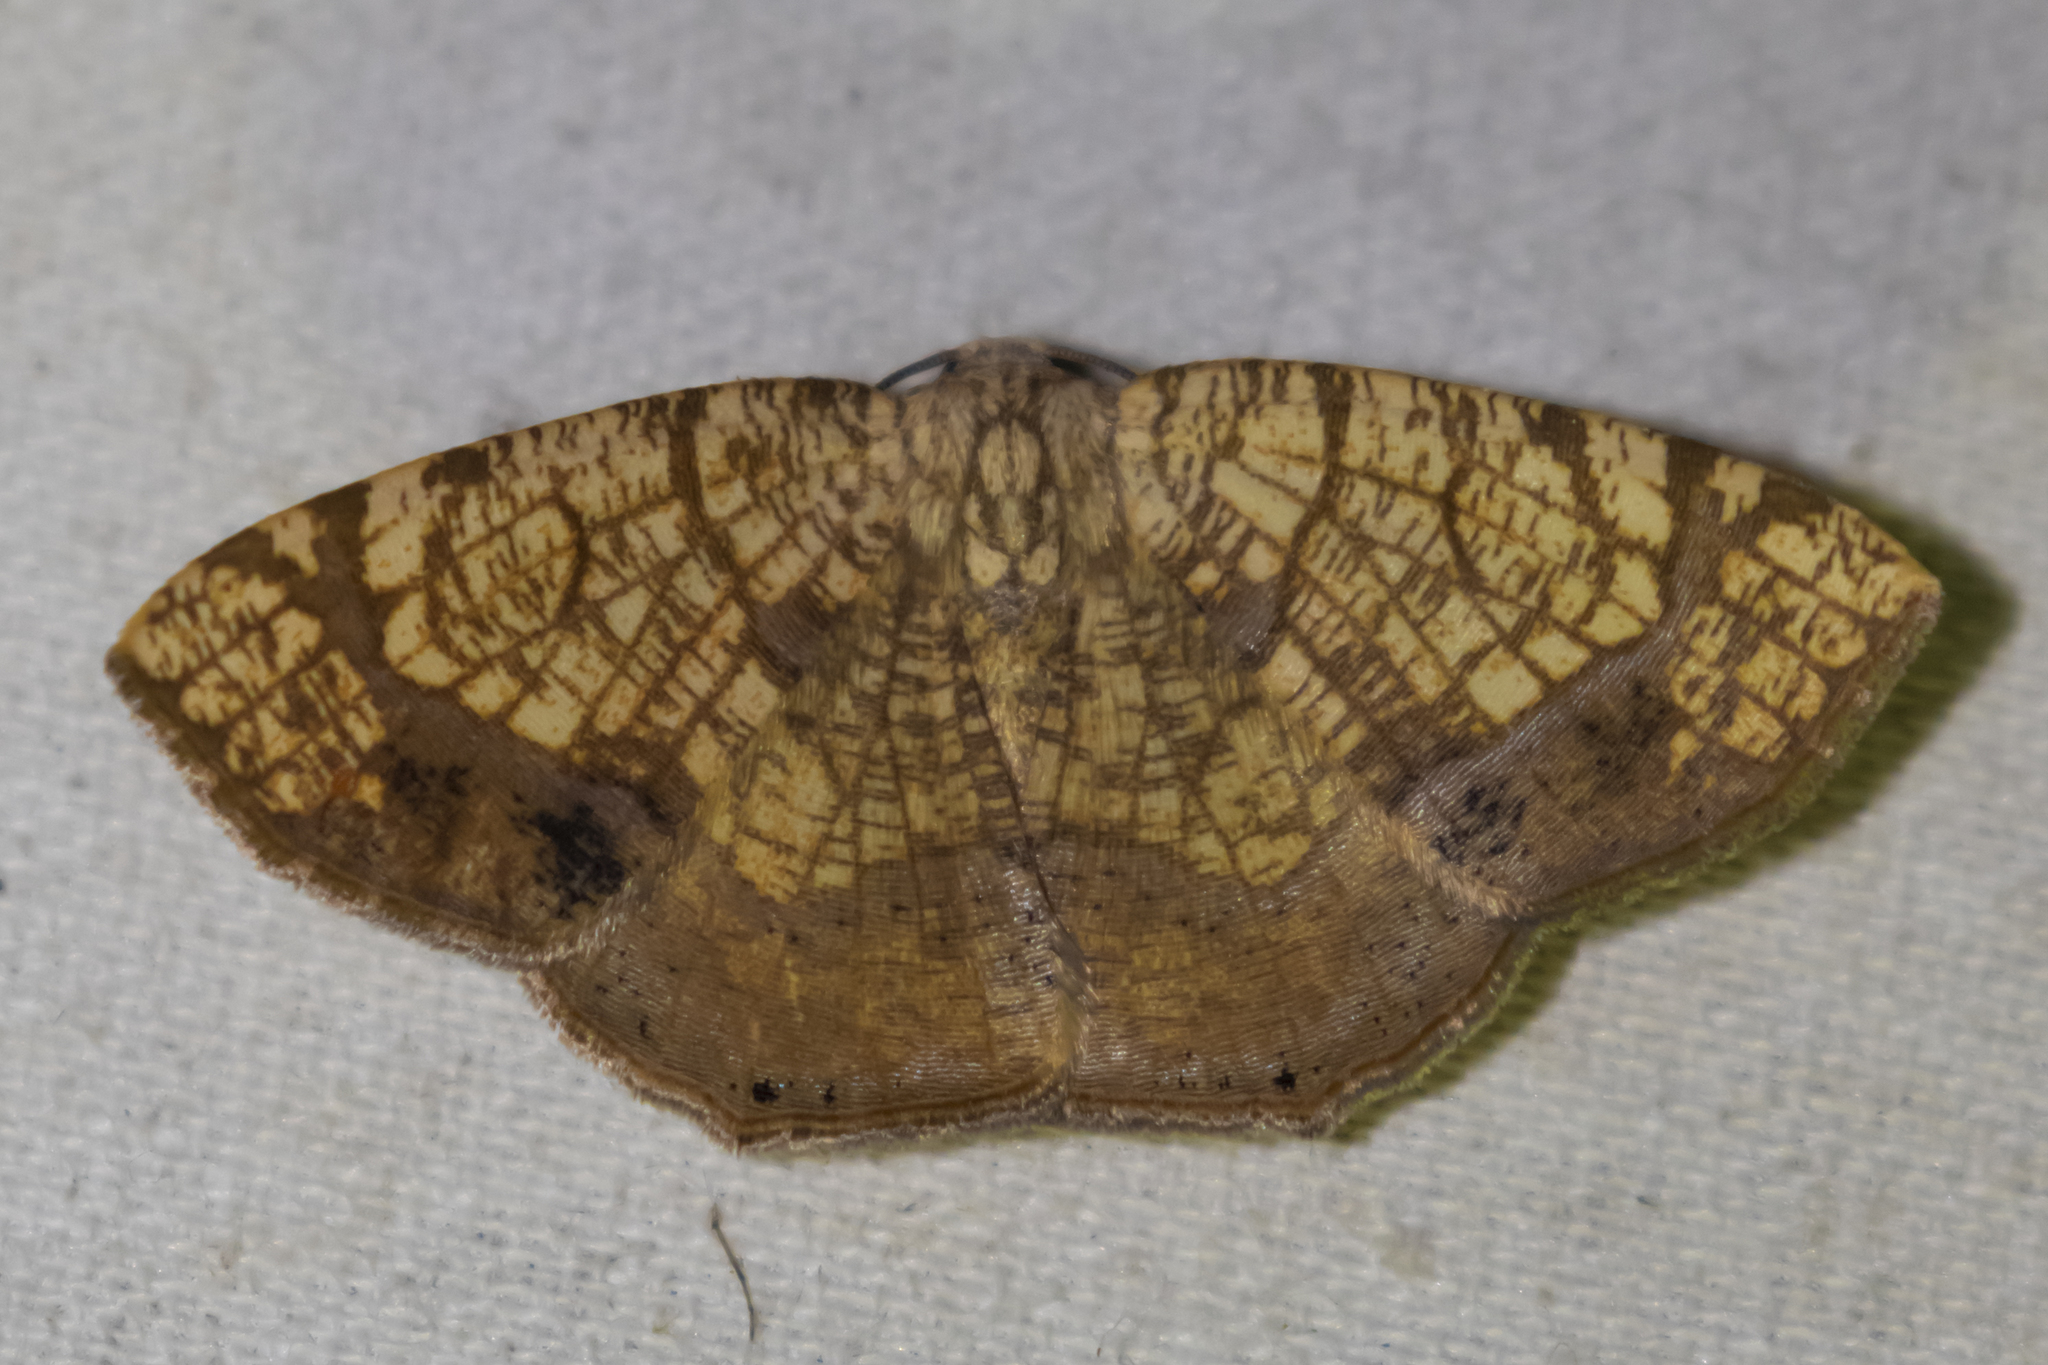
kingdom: Animalia
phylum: Arthropoda
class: Insecta
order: Lepidoptera
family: Geometridae
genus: Nematocampa
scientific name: Nematocampa reticulata
